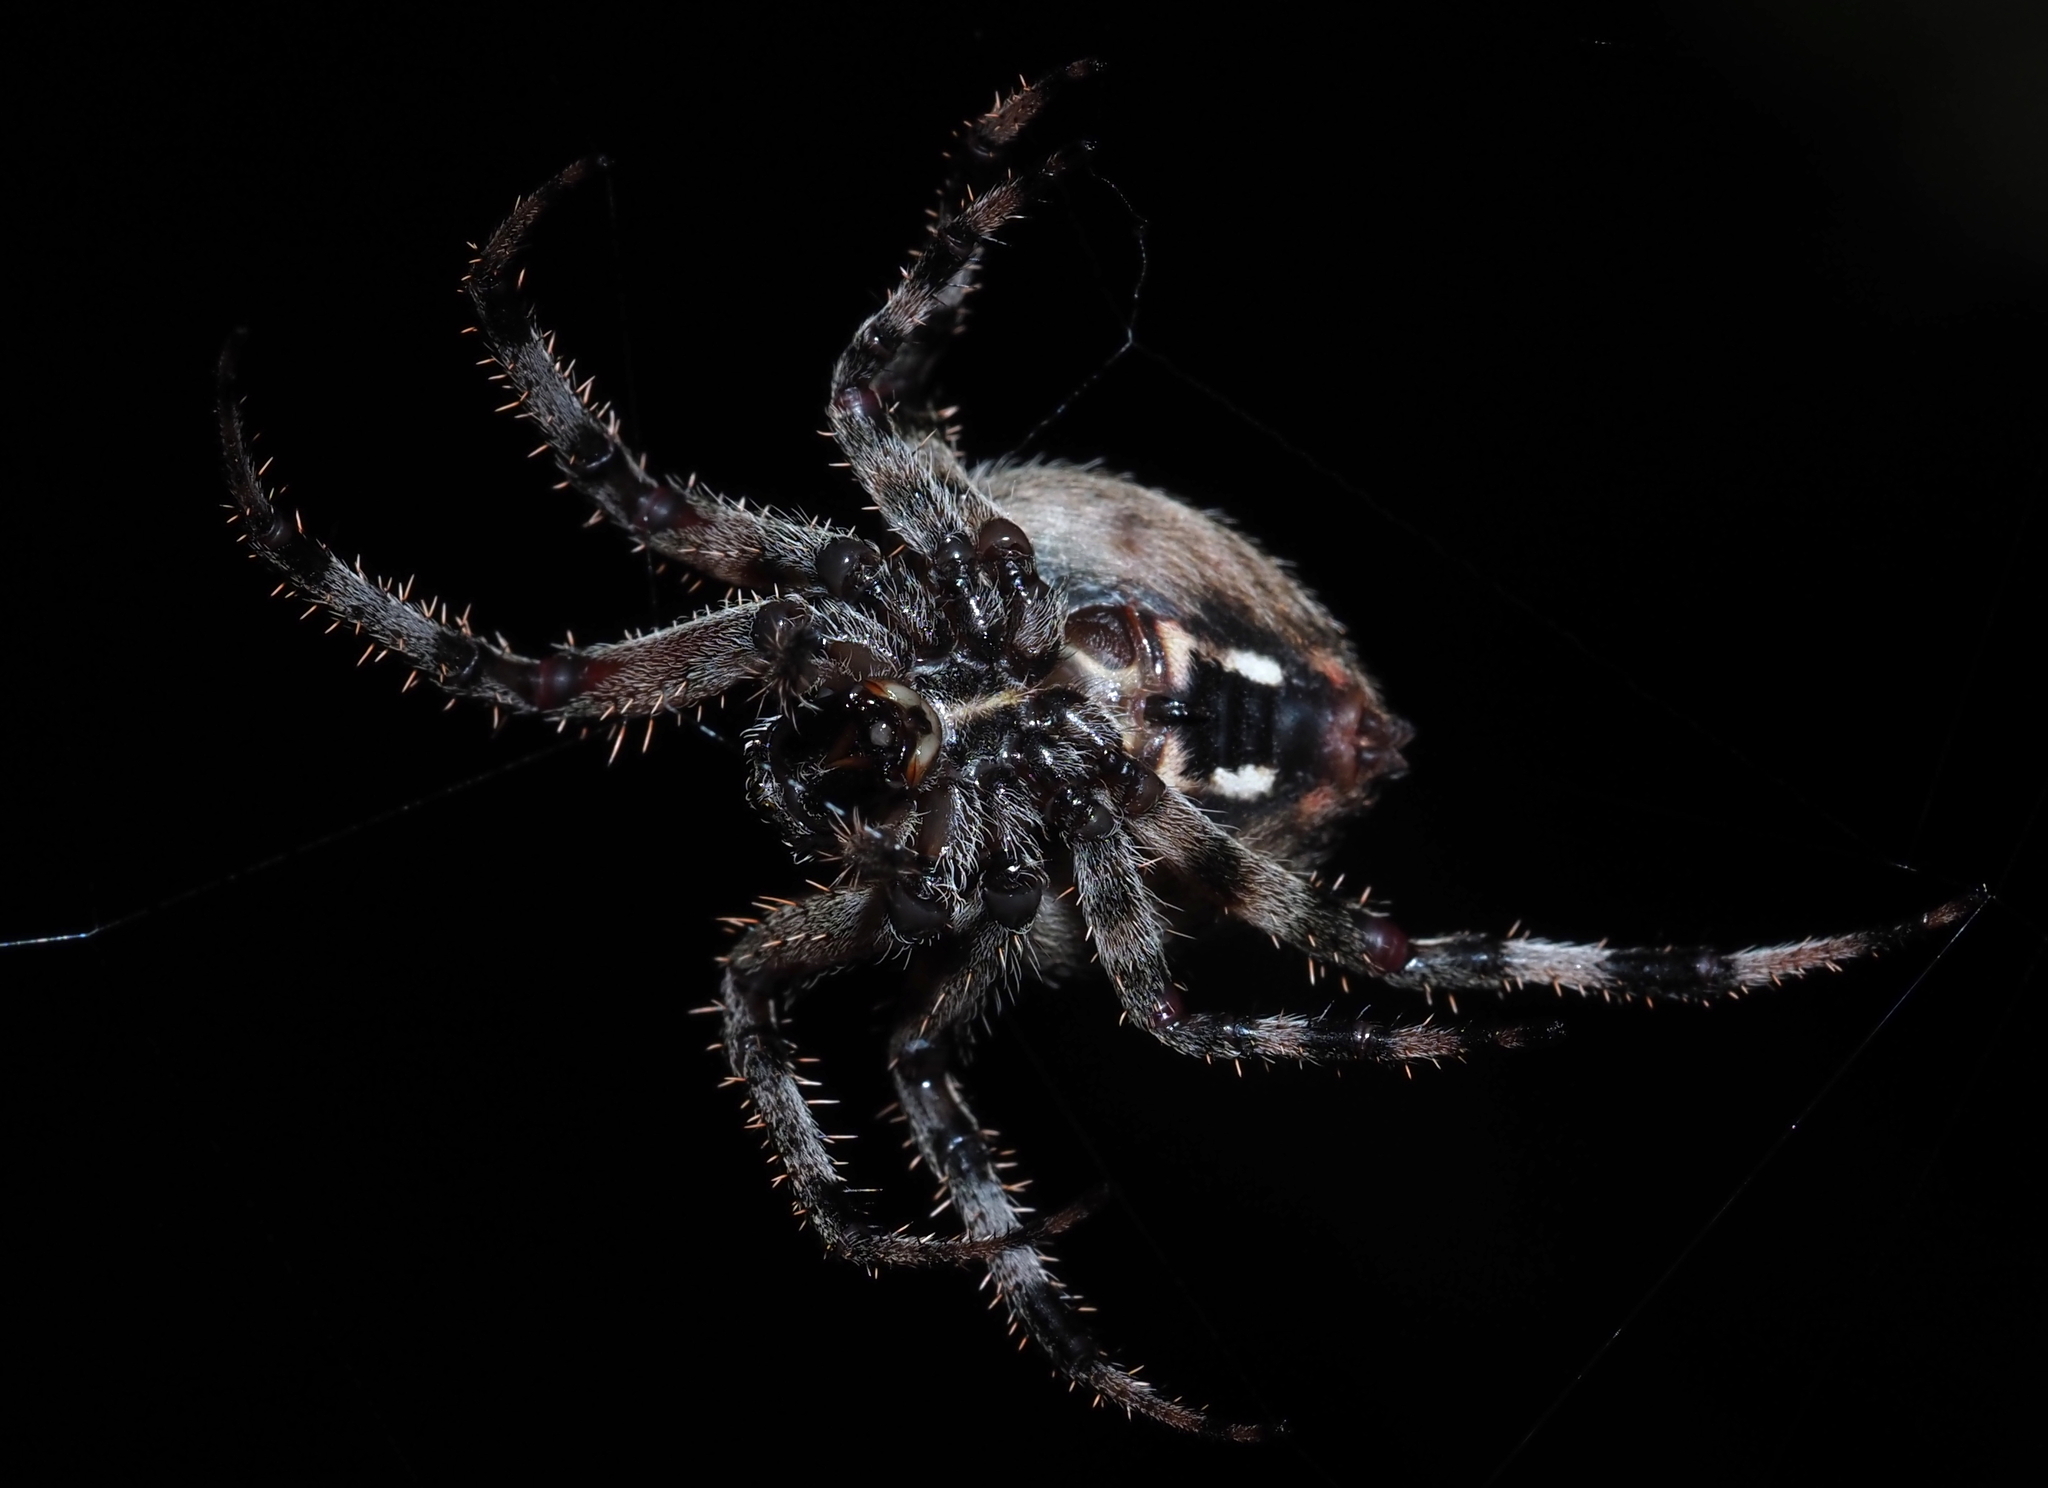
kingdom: Animalia
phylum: Arthropoda
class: Arachnida
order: Araneae
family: Araneidae
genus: Neoscona
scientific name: Neoscona crucifera
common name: Spotted orbweaver
